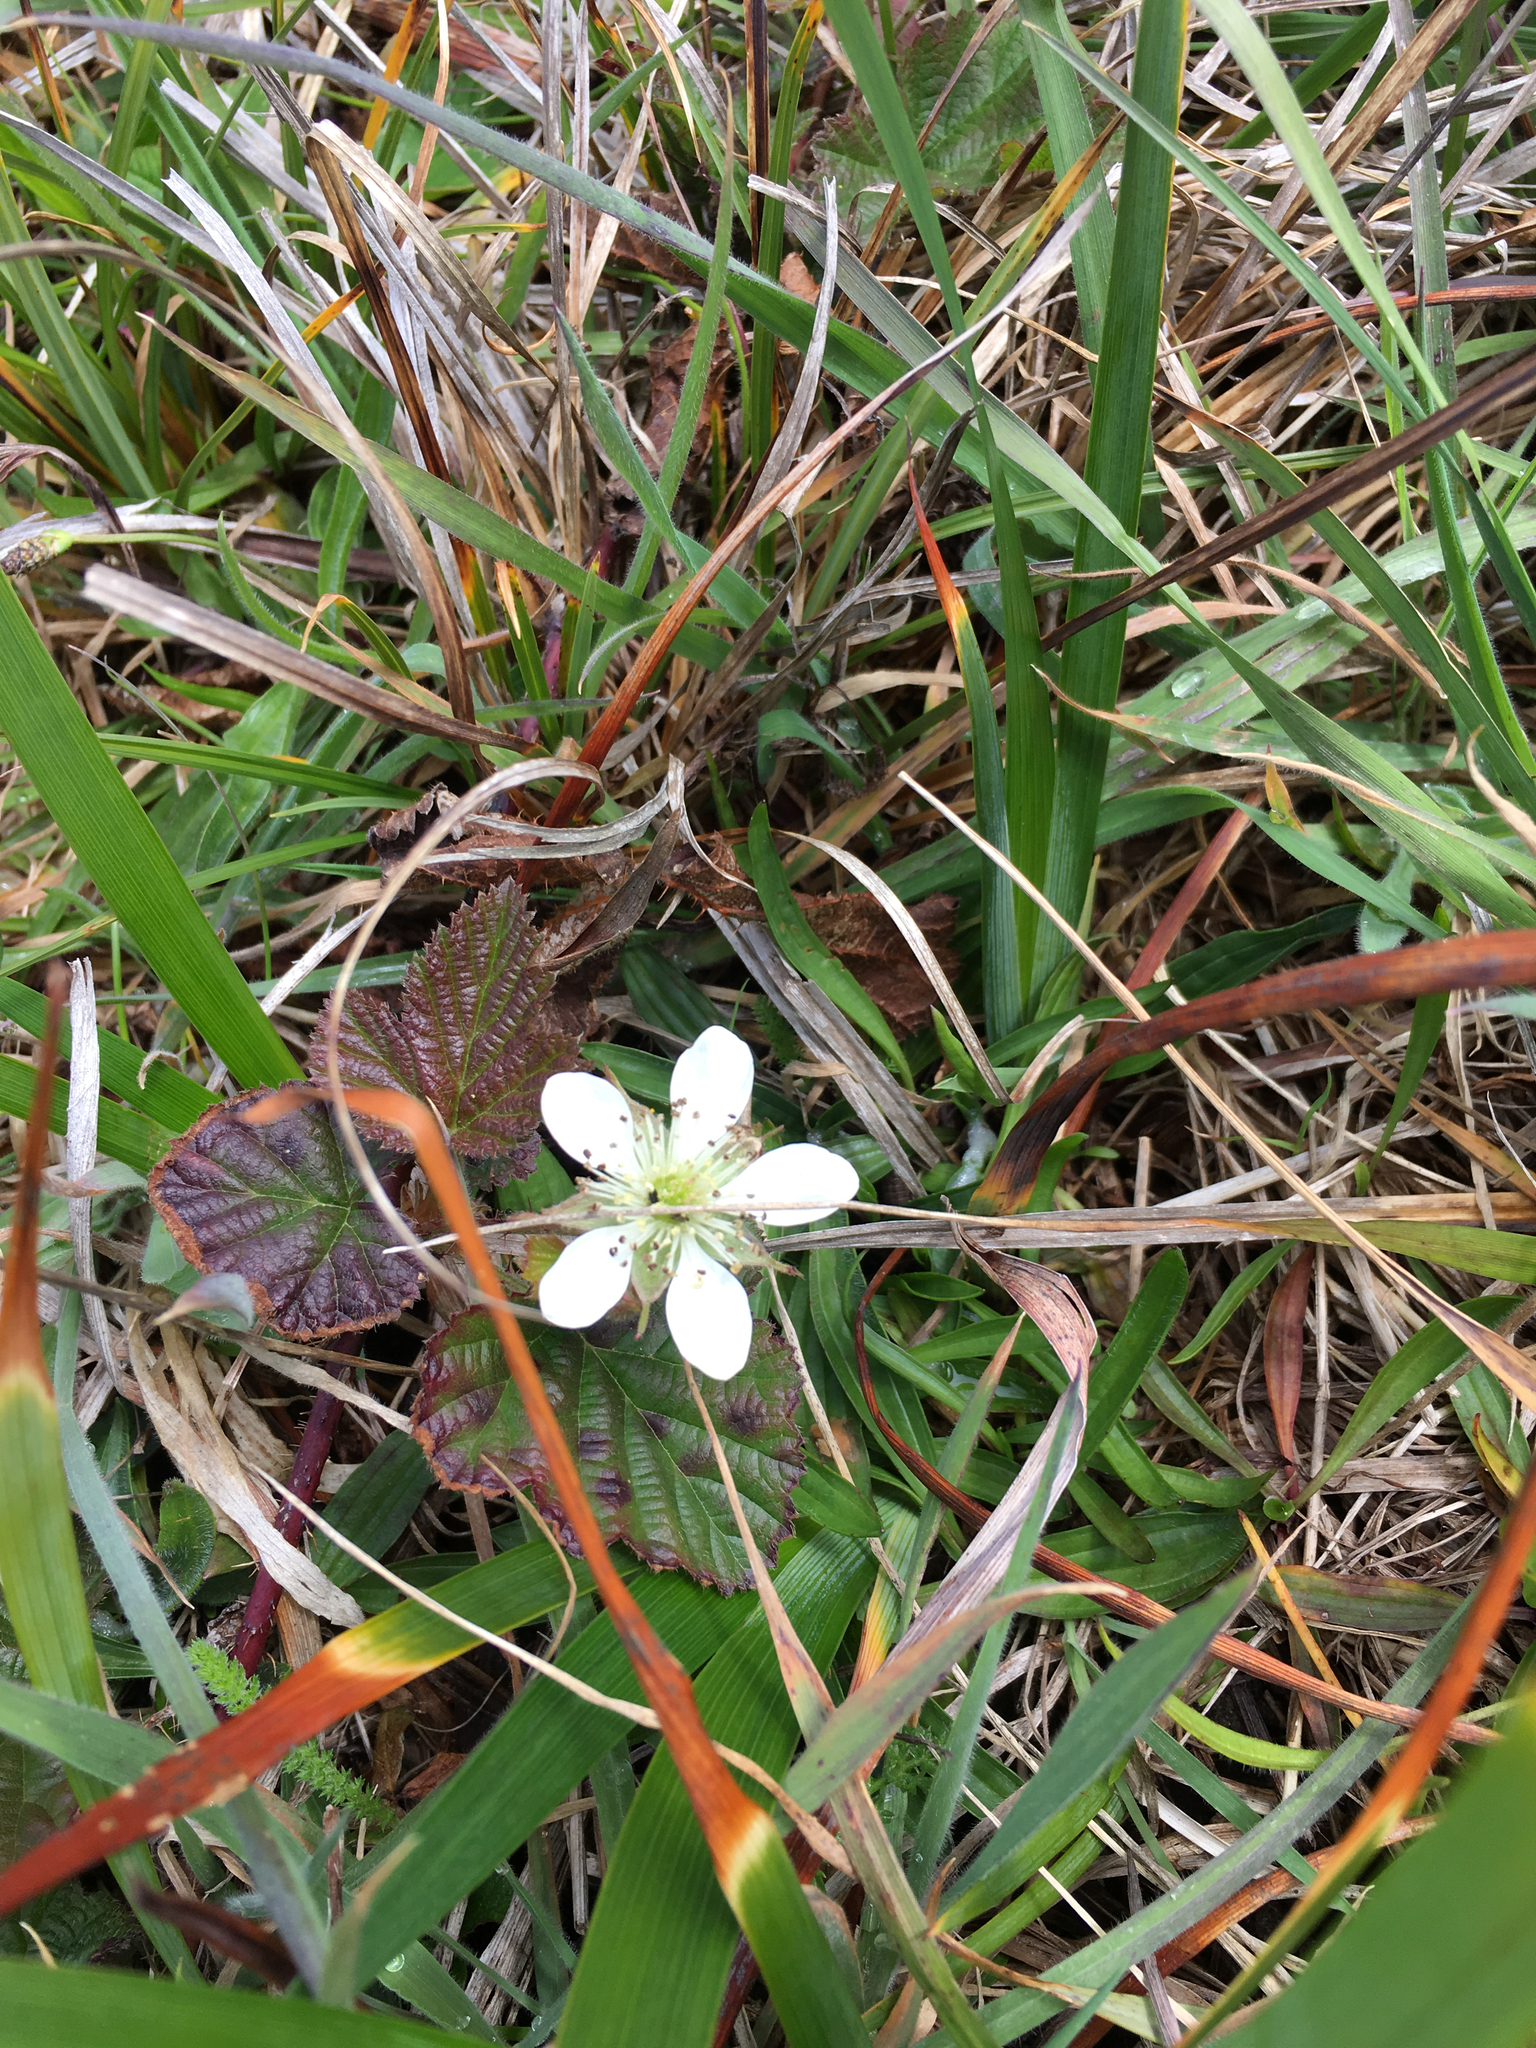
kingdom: Plantae
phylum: Tracheophyta
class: Magnoliopsida
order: Rosales
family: Rosaceae
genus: Rubus
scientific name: Rubus ursinus
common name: Pacific blackberry
